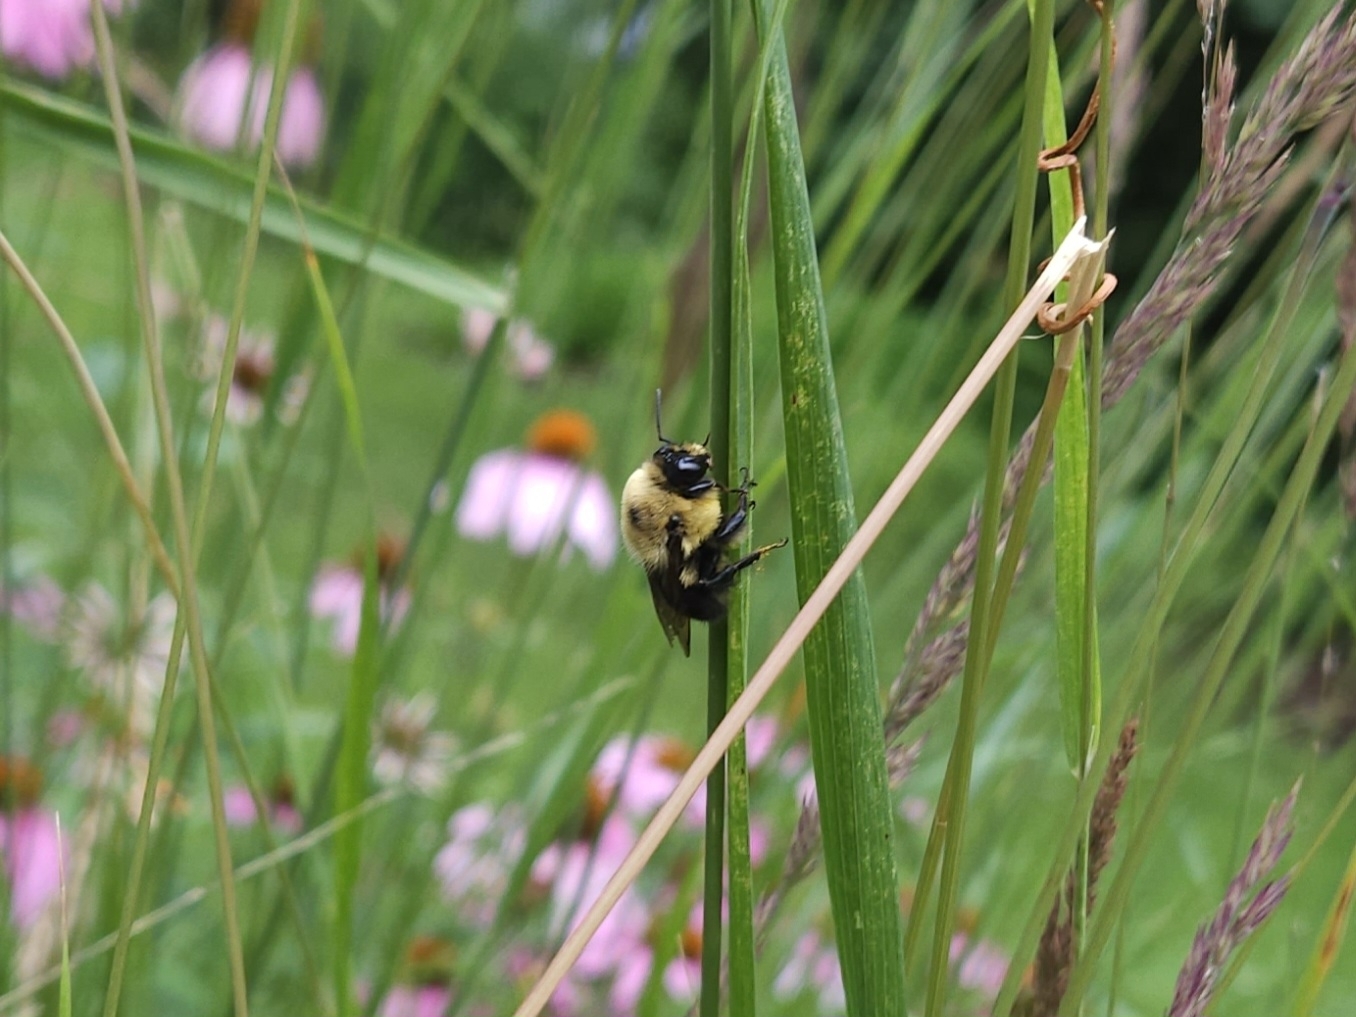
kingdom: Animalia
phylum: Arthropoda
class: Insecta
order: Hymenoptera
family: Apidae
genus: Bombus
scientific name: Bombus griseocollis
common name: Brown-belted bumble bee
